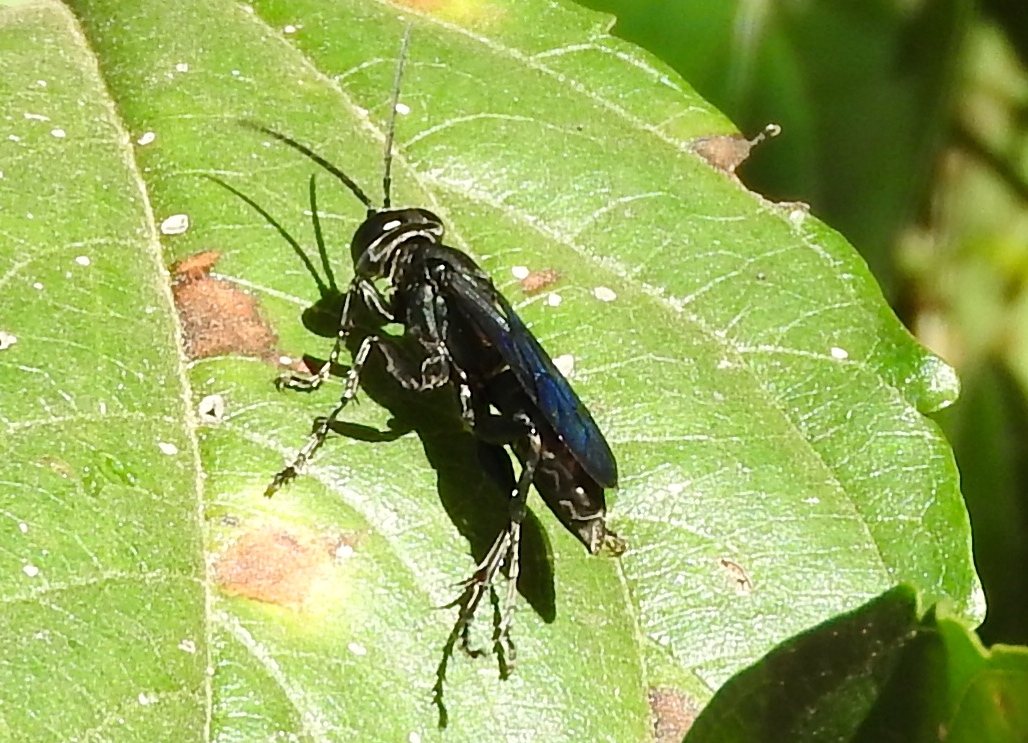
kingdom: Animalia
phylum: Arthropoda
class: Insecta
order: Hymenoptera
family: Crabronidae
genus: Larra
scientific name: Larra
